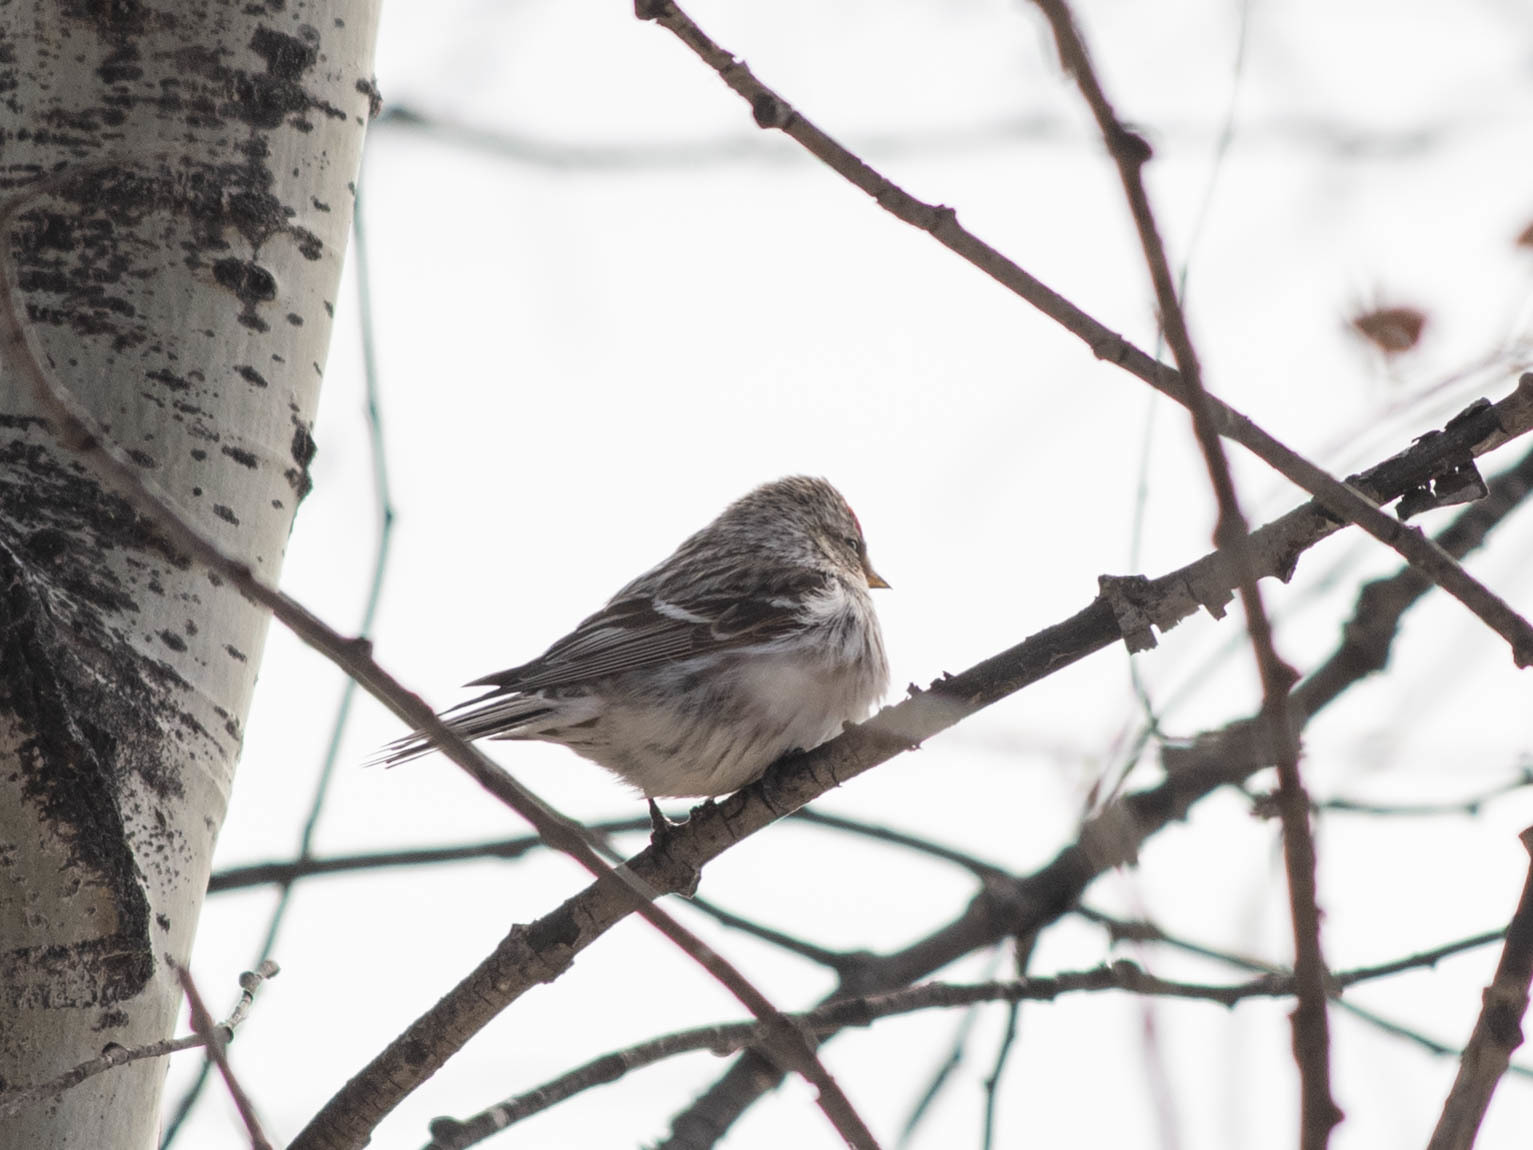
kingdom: Animalia
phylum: Chordata
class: Aves
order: Passeriformes
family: Fringillidae
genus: Acanthis
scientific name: Acanthis flammea
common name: Common redpoll
